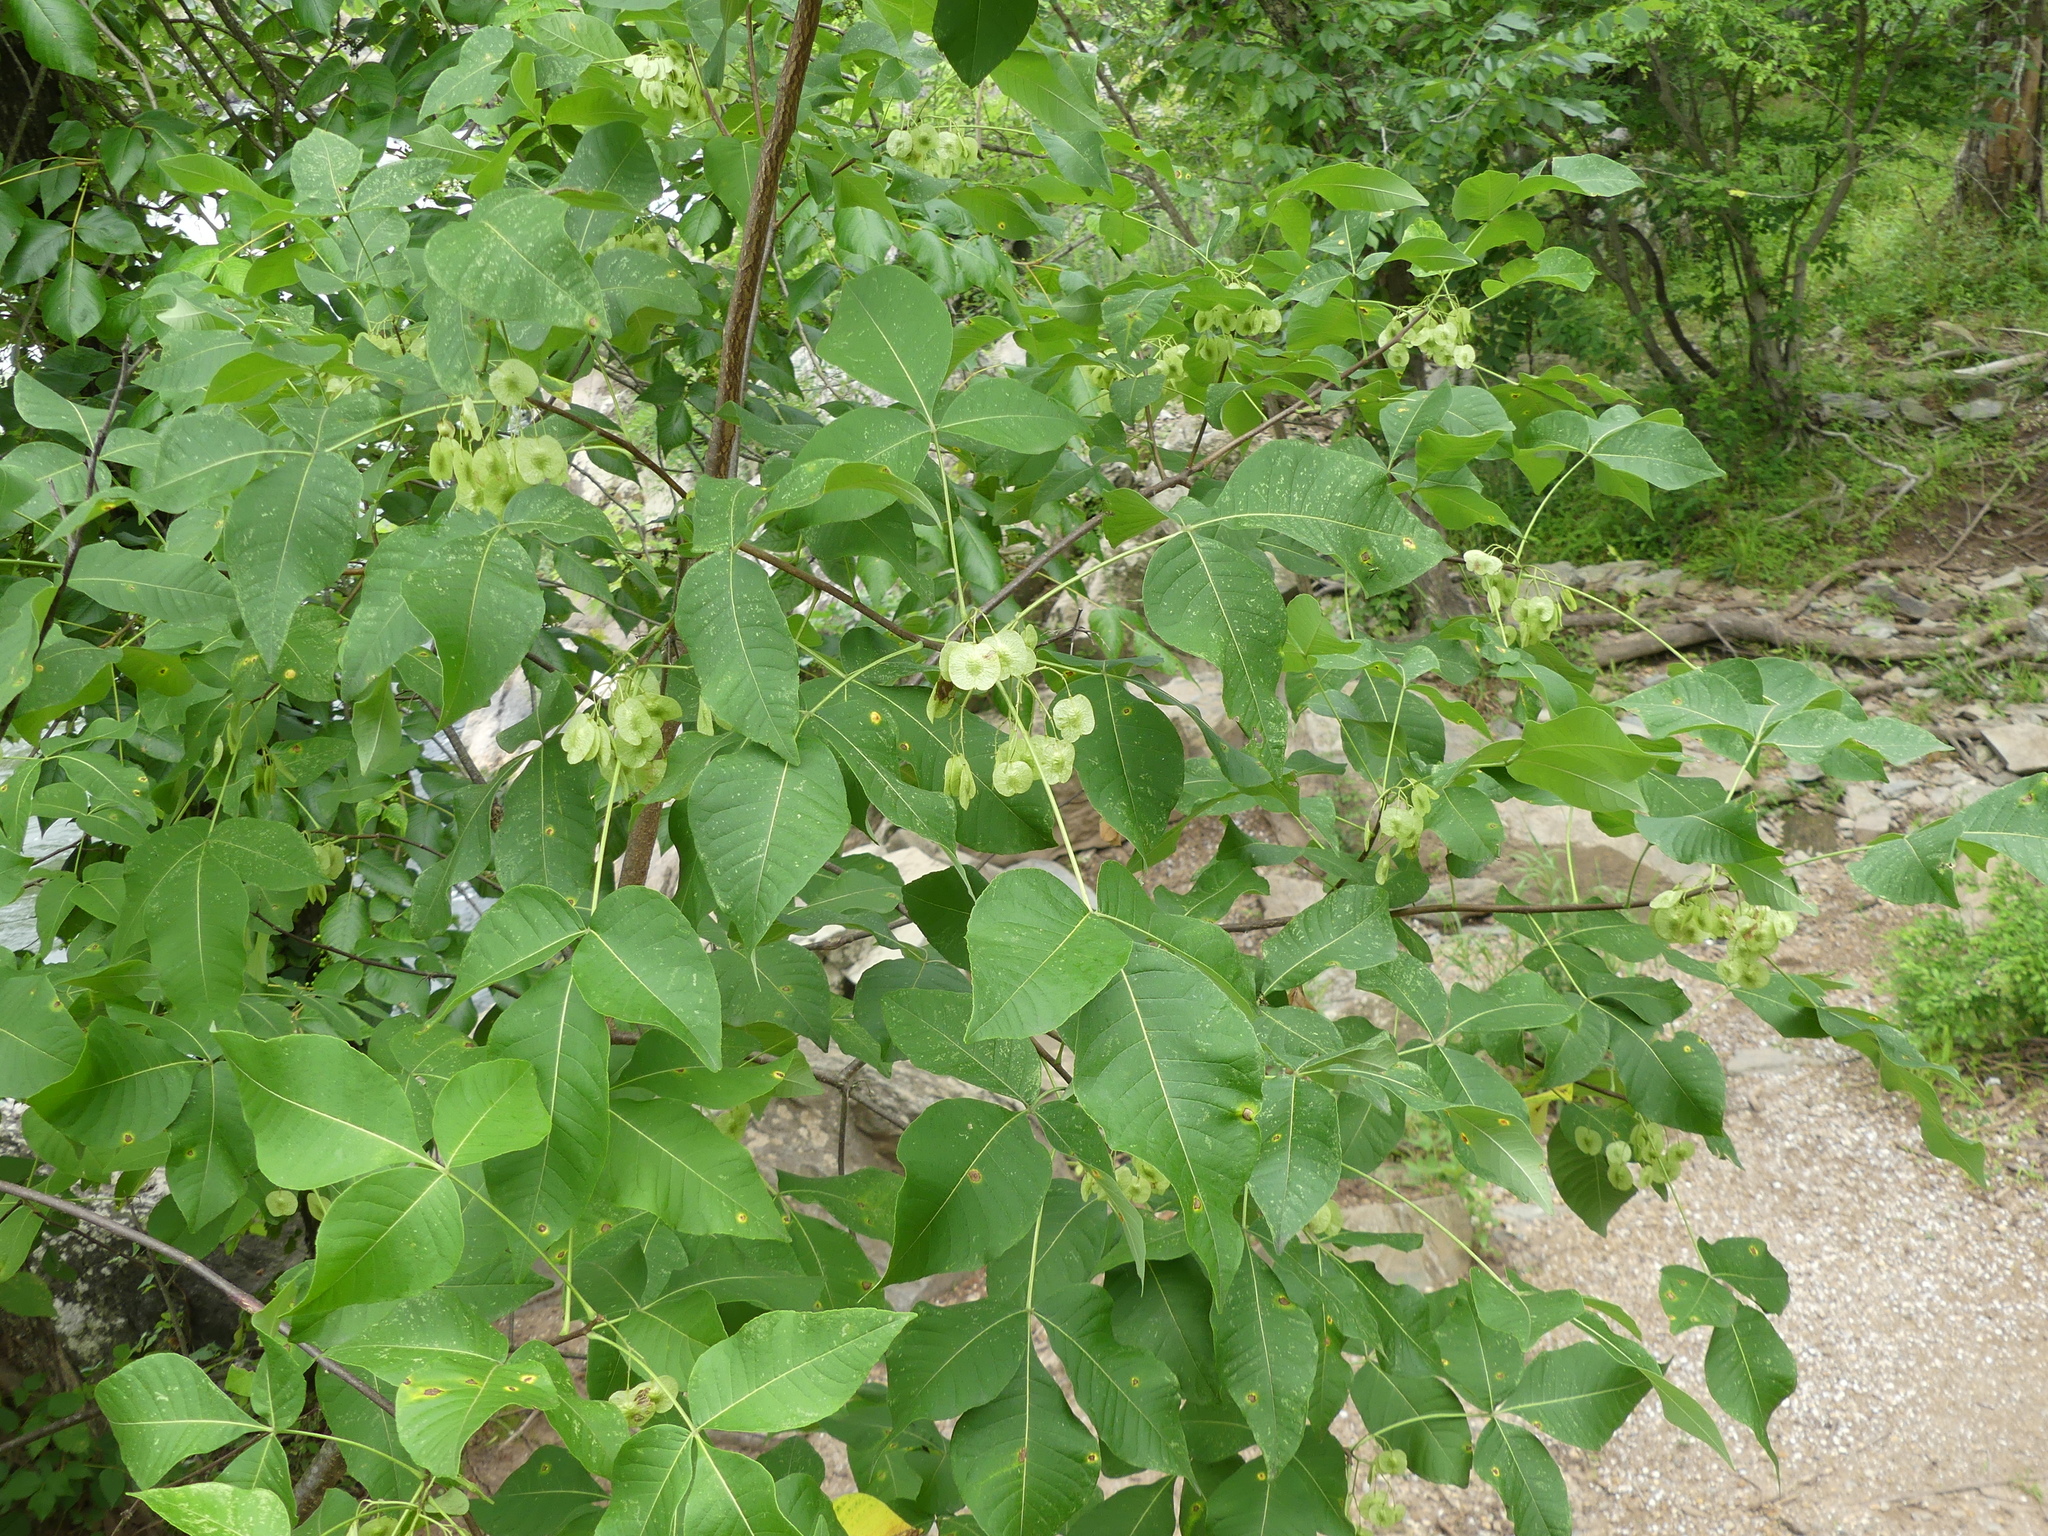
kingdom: Plantae
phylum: Tracheophyta
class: Magnoliopsida
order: Sapindales
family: Rutaceae
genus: Ptelea
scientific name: Ptelea trifoliata
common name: Common hop-tree
